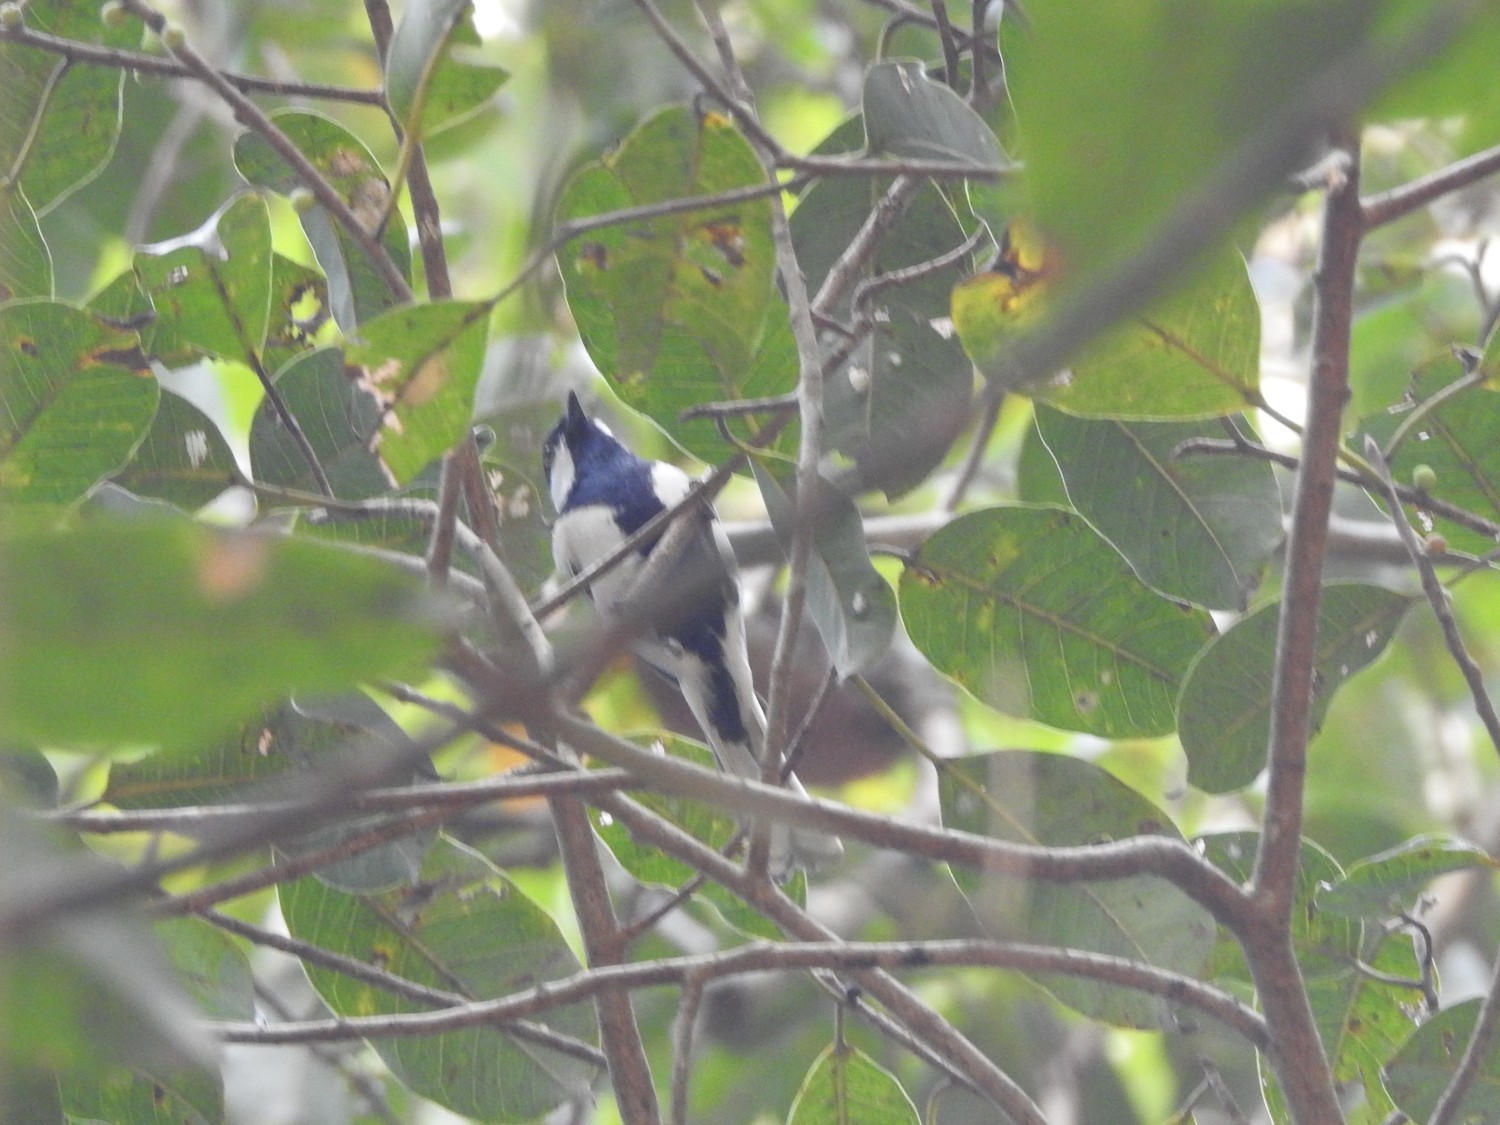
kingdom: Animalia
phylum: Chordata
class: Aves
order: Passeriformes
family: Paridae
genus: Parus
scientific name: Parus cinereus
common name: Cinereous tit
